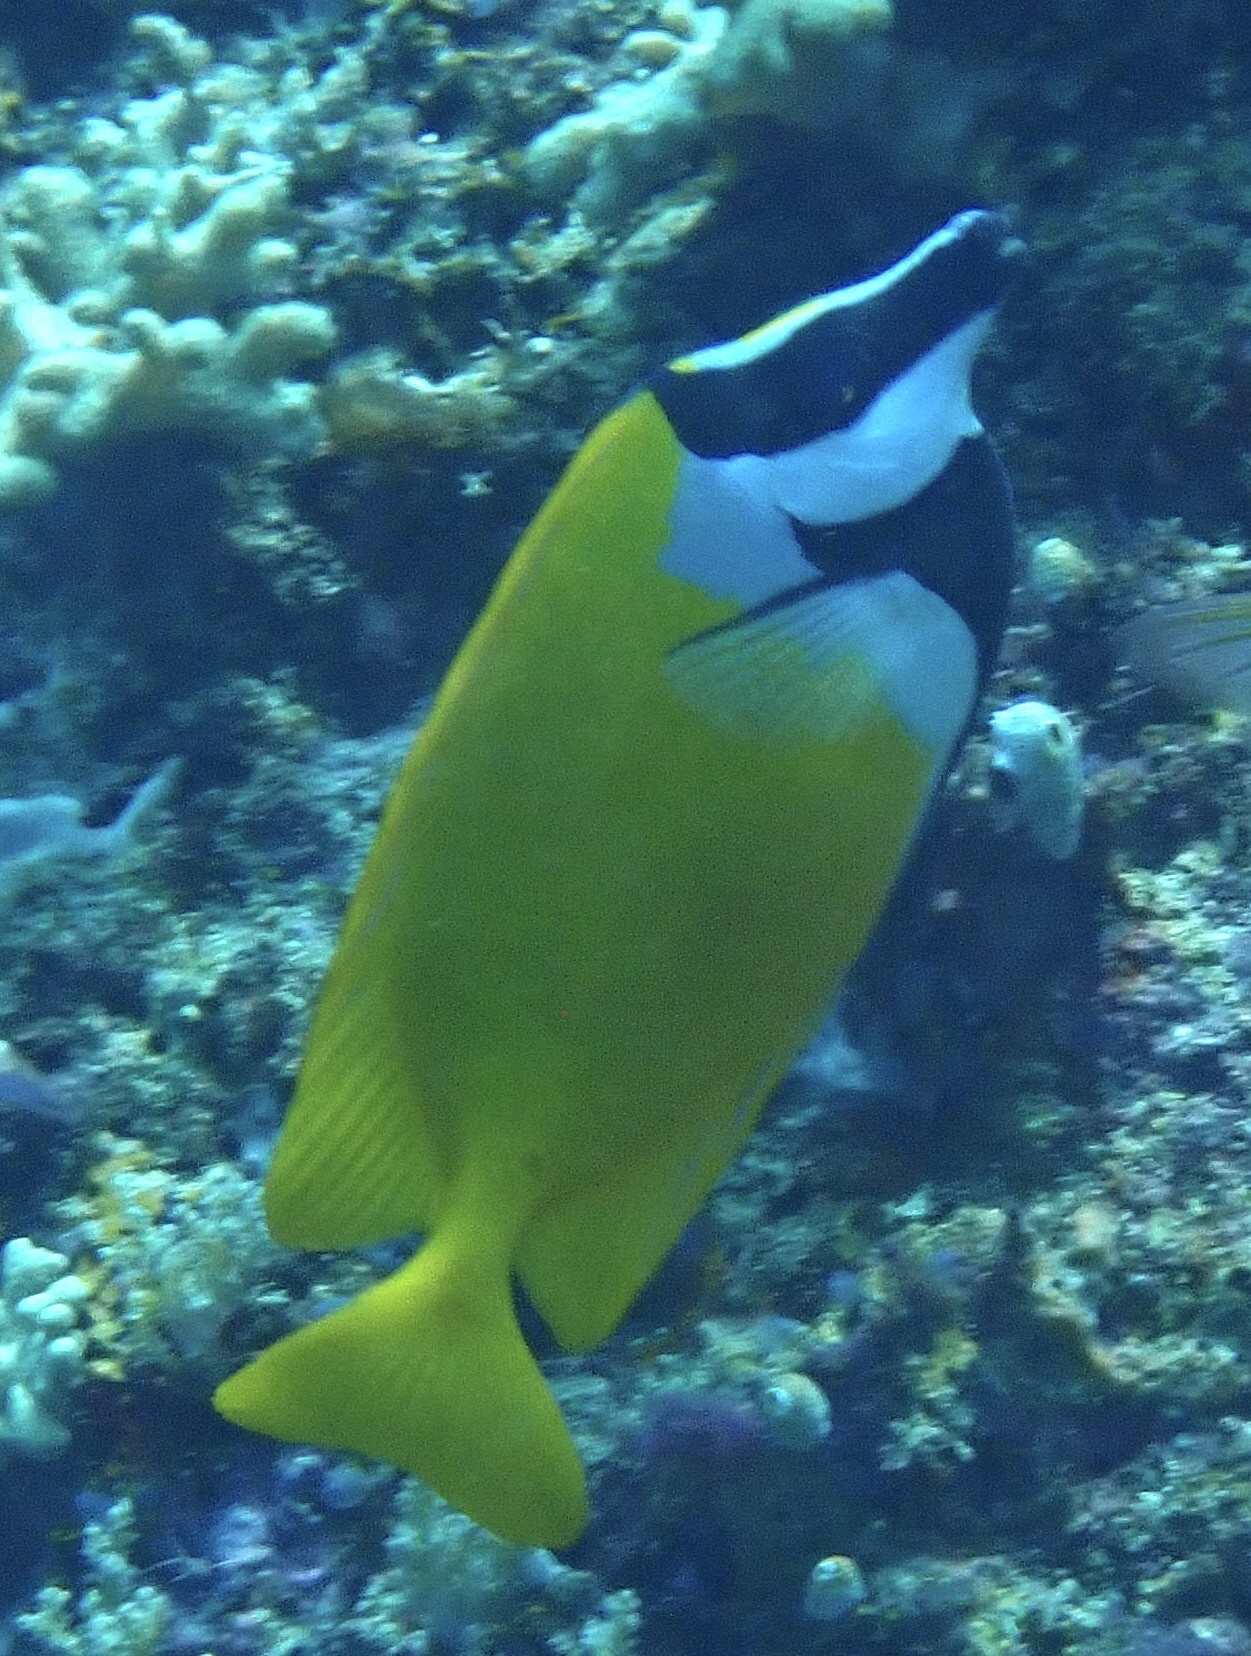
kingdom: Animalia
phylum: Chordata
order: Perciformes
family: Siganidae
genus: Siganus
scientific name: Siganus vulpinus
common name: Foxface
